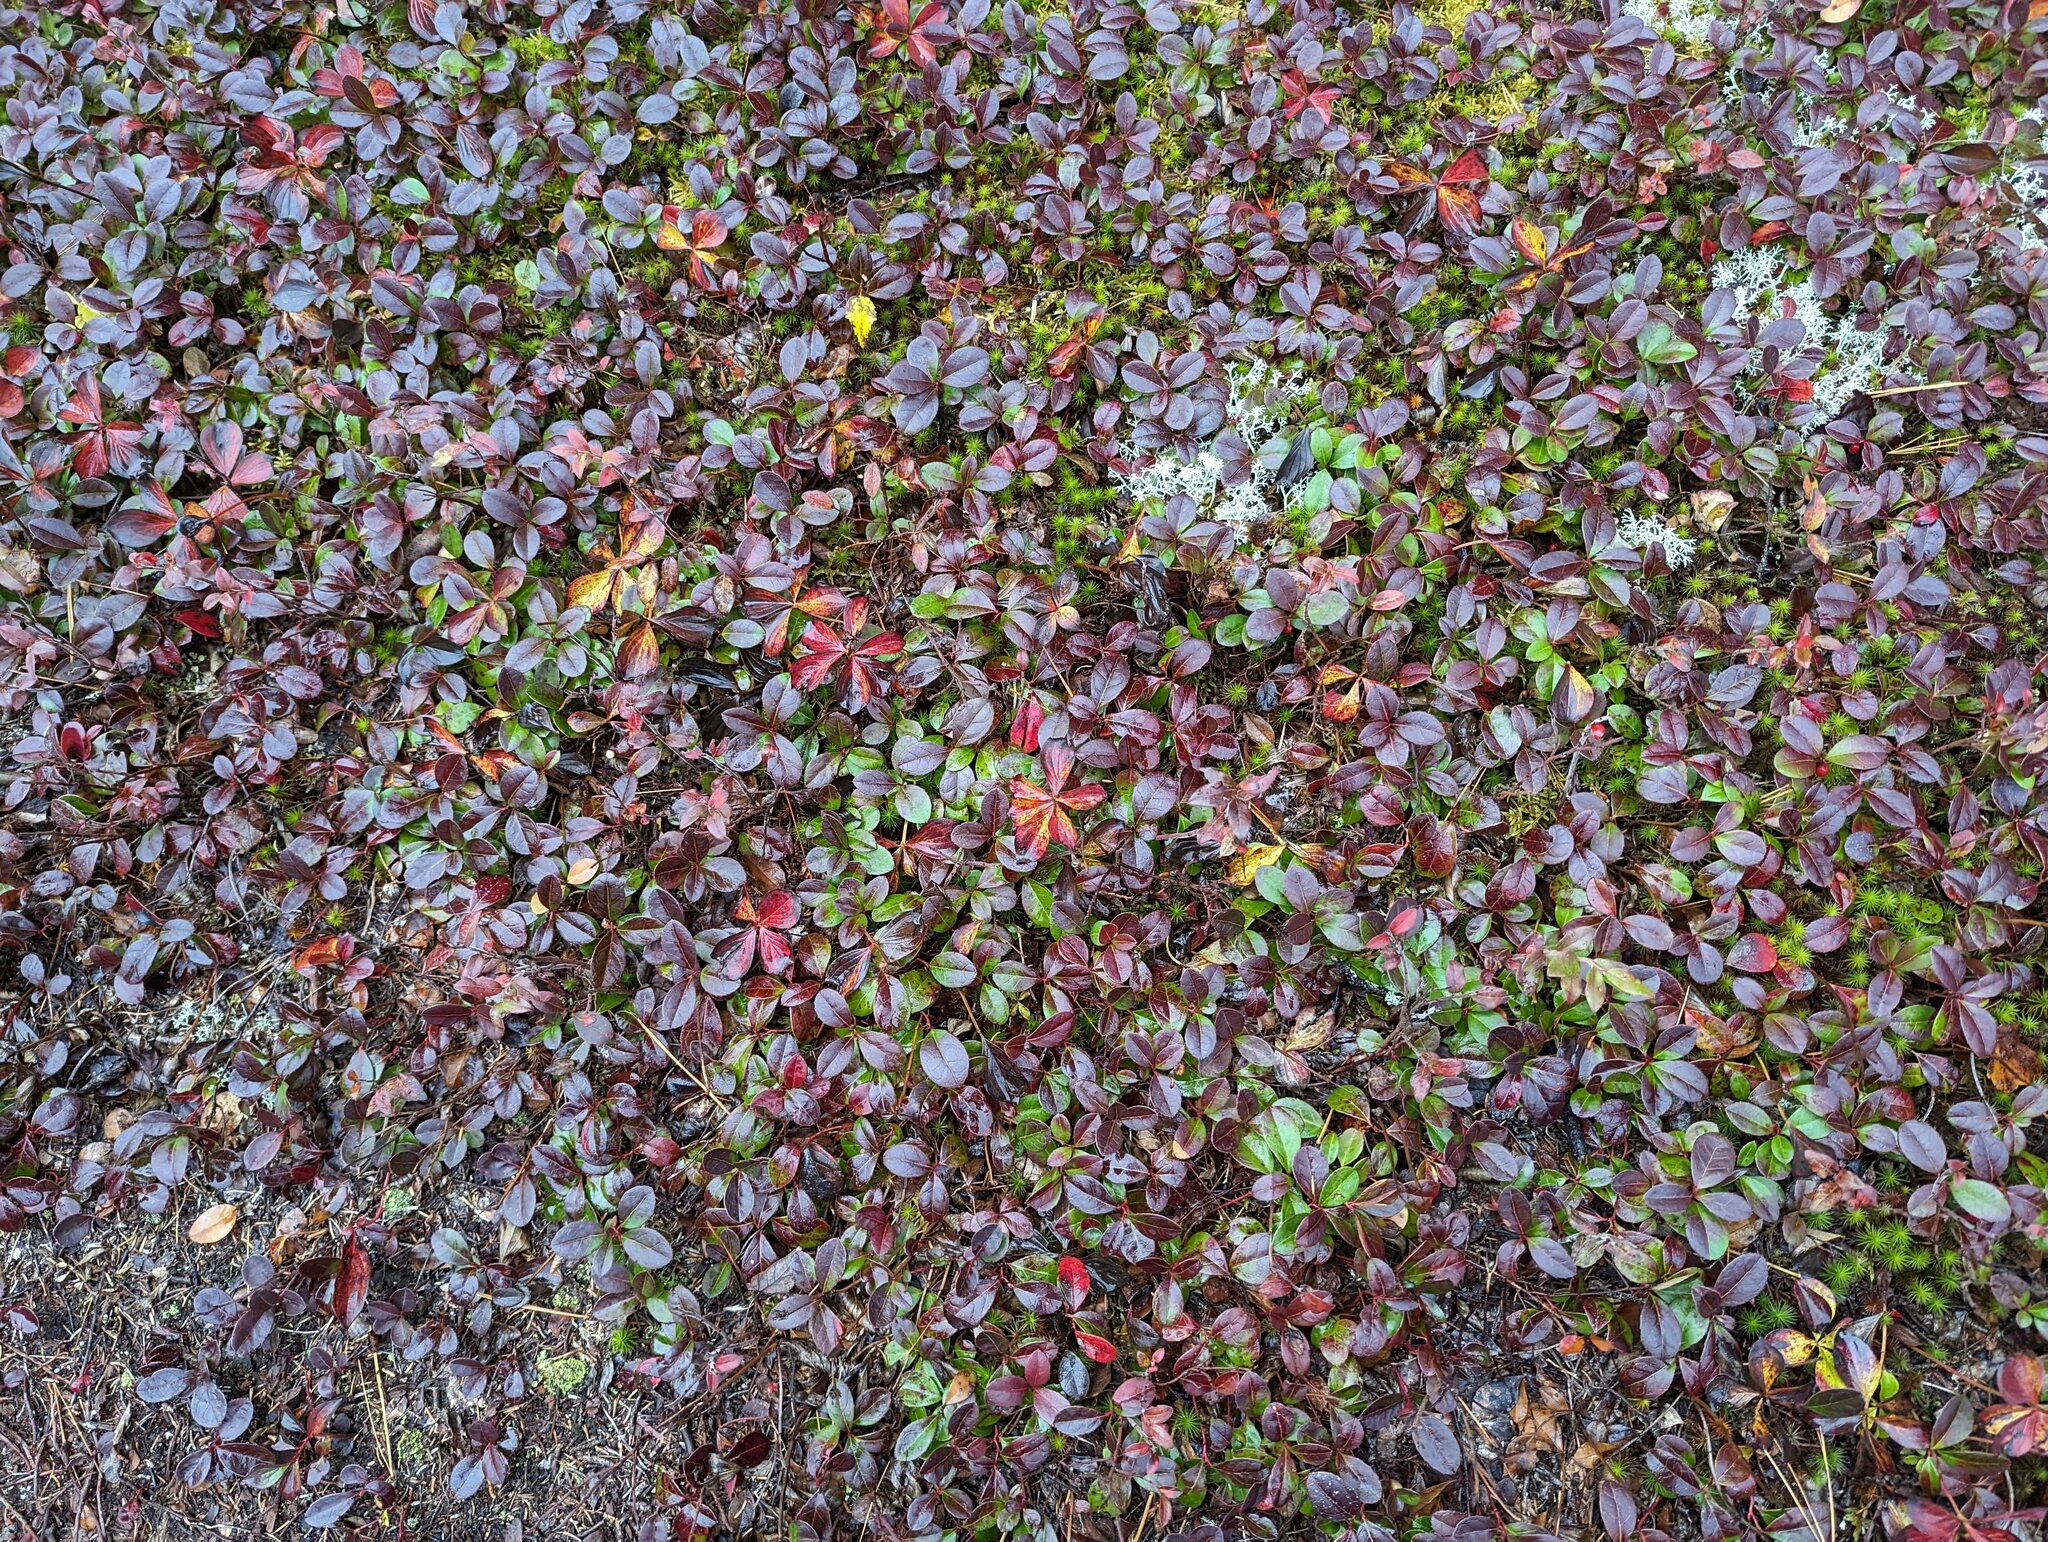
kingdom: Plantae
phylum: Tracheophyta
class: Magnoliopsida
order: Ericales
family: Ericaceae
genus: Gaultheria
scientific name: Gaultheria procumbens
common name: Checkerberry
